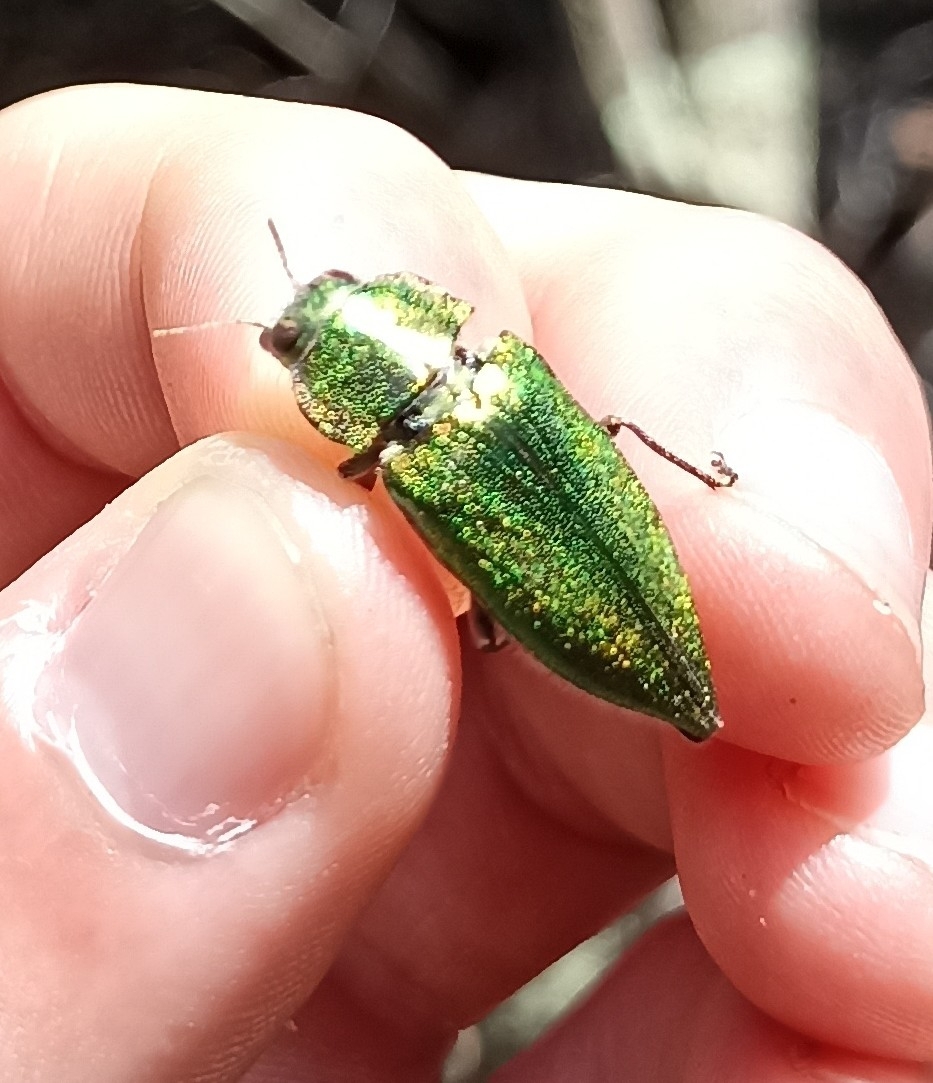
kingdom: Animalia
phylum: Arthropoda
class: Insecta
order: Coleoptera
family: Buprestidae
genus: Latipalpis
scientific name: Latipalpis plana
